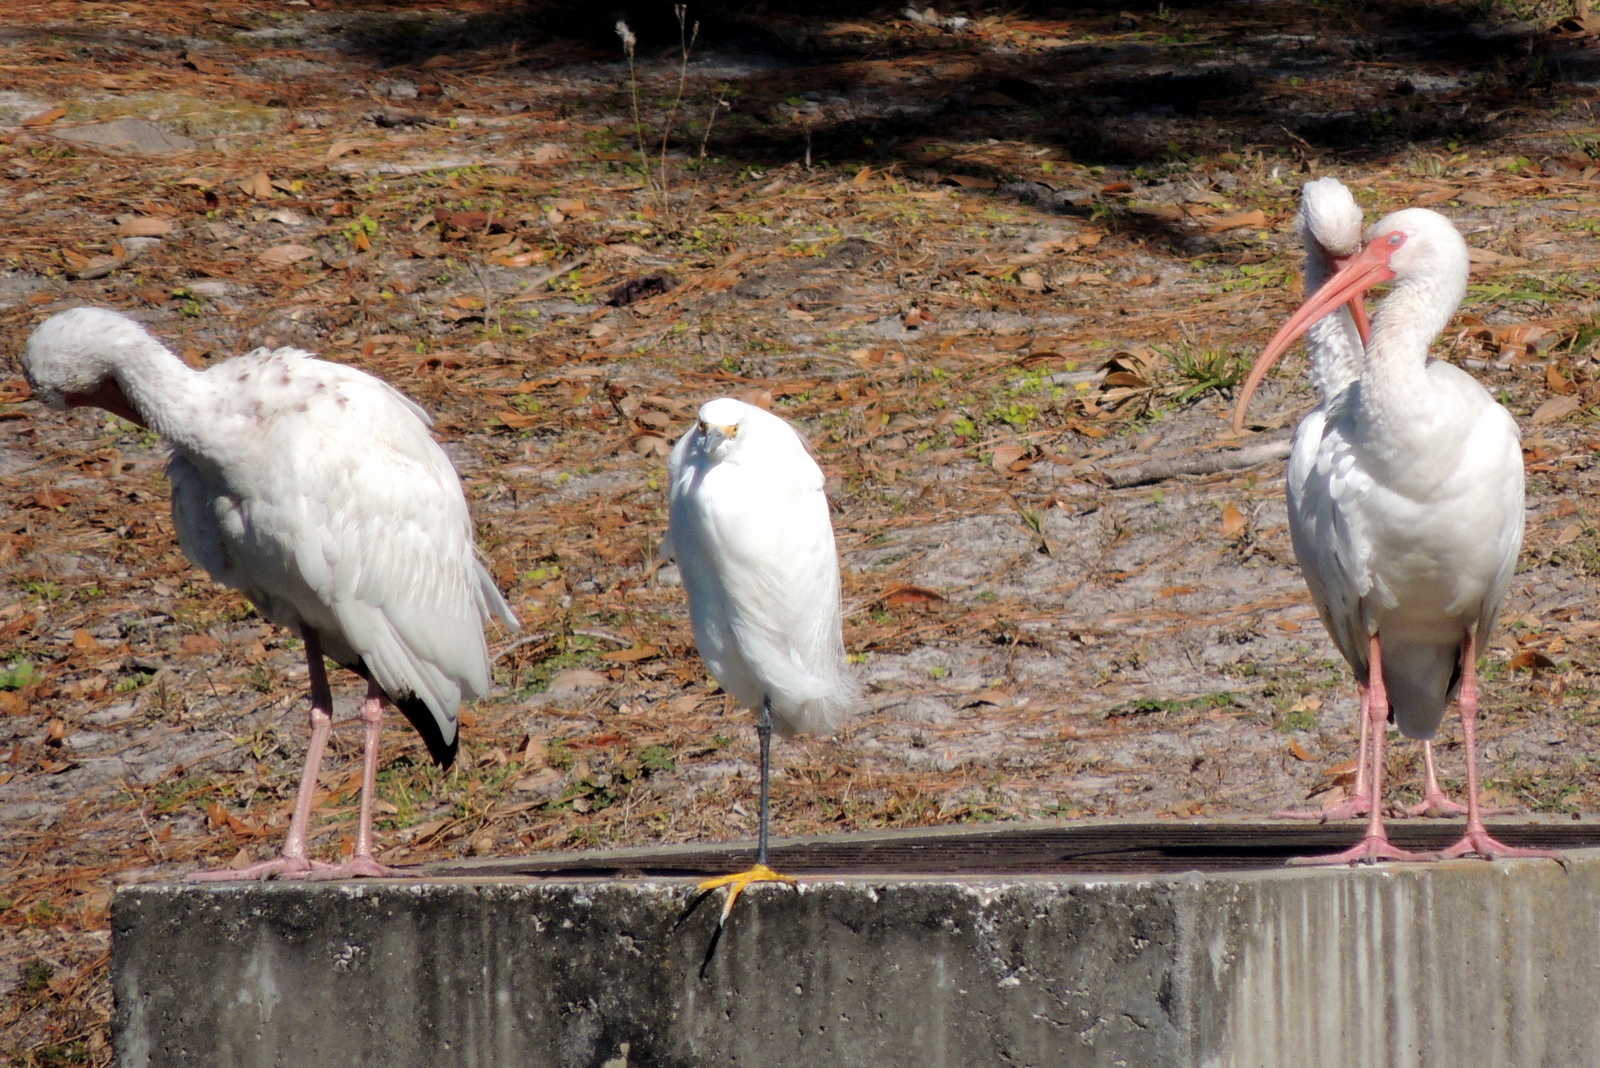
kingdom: Animalia
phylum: Chordata
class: Aves
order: Pelecaniformes
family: Threskiornithidae
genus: Eudocimus
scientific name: Eudocimus albus
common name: White ibis
